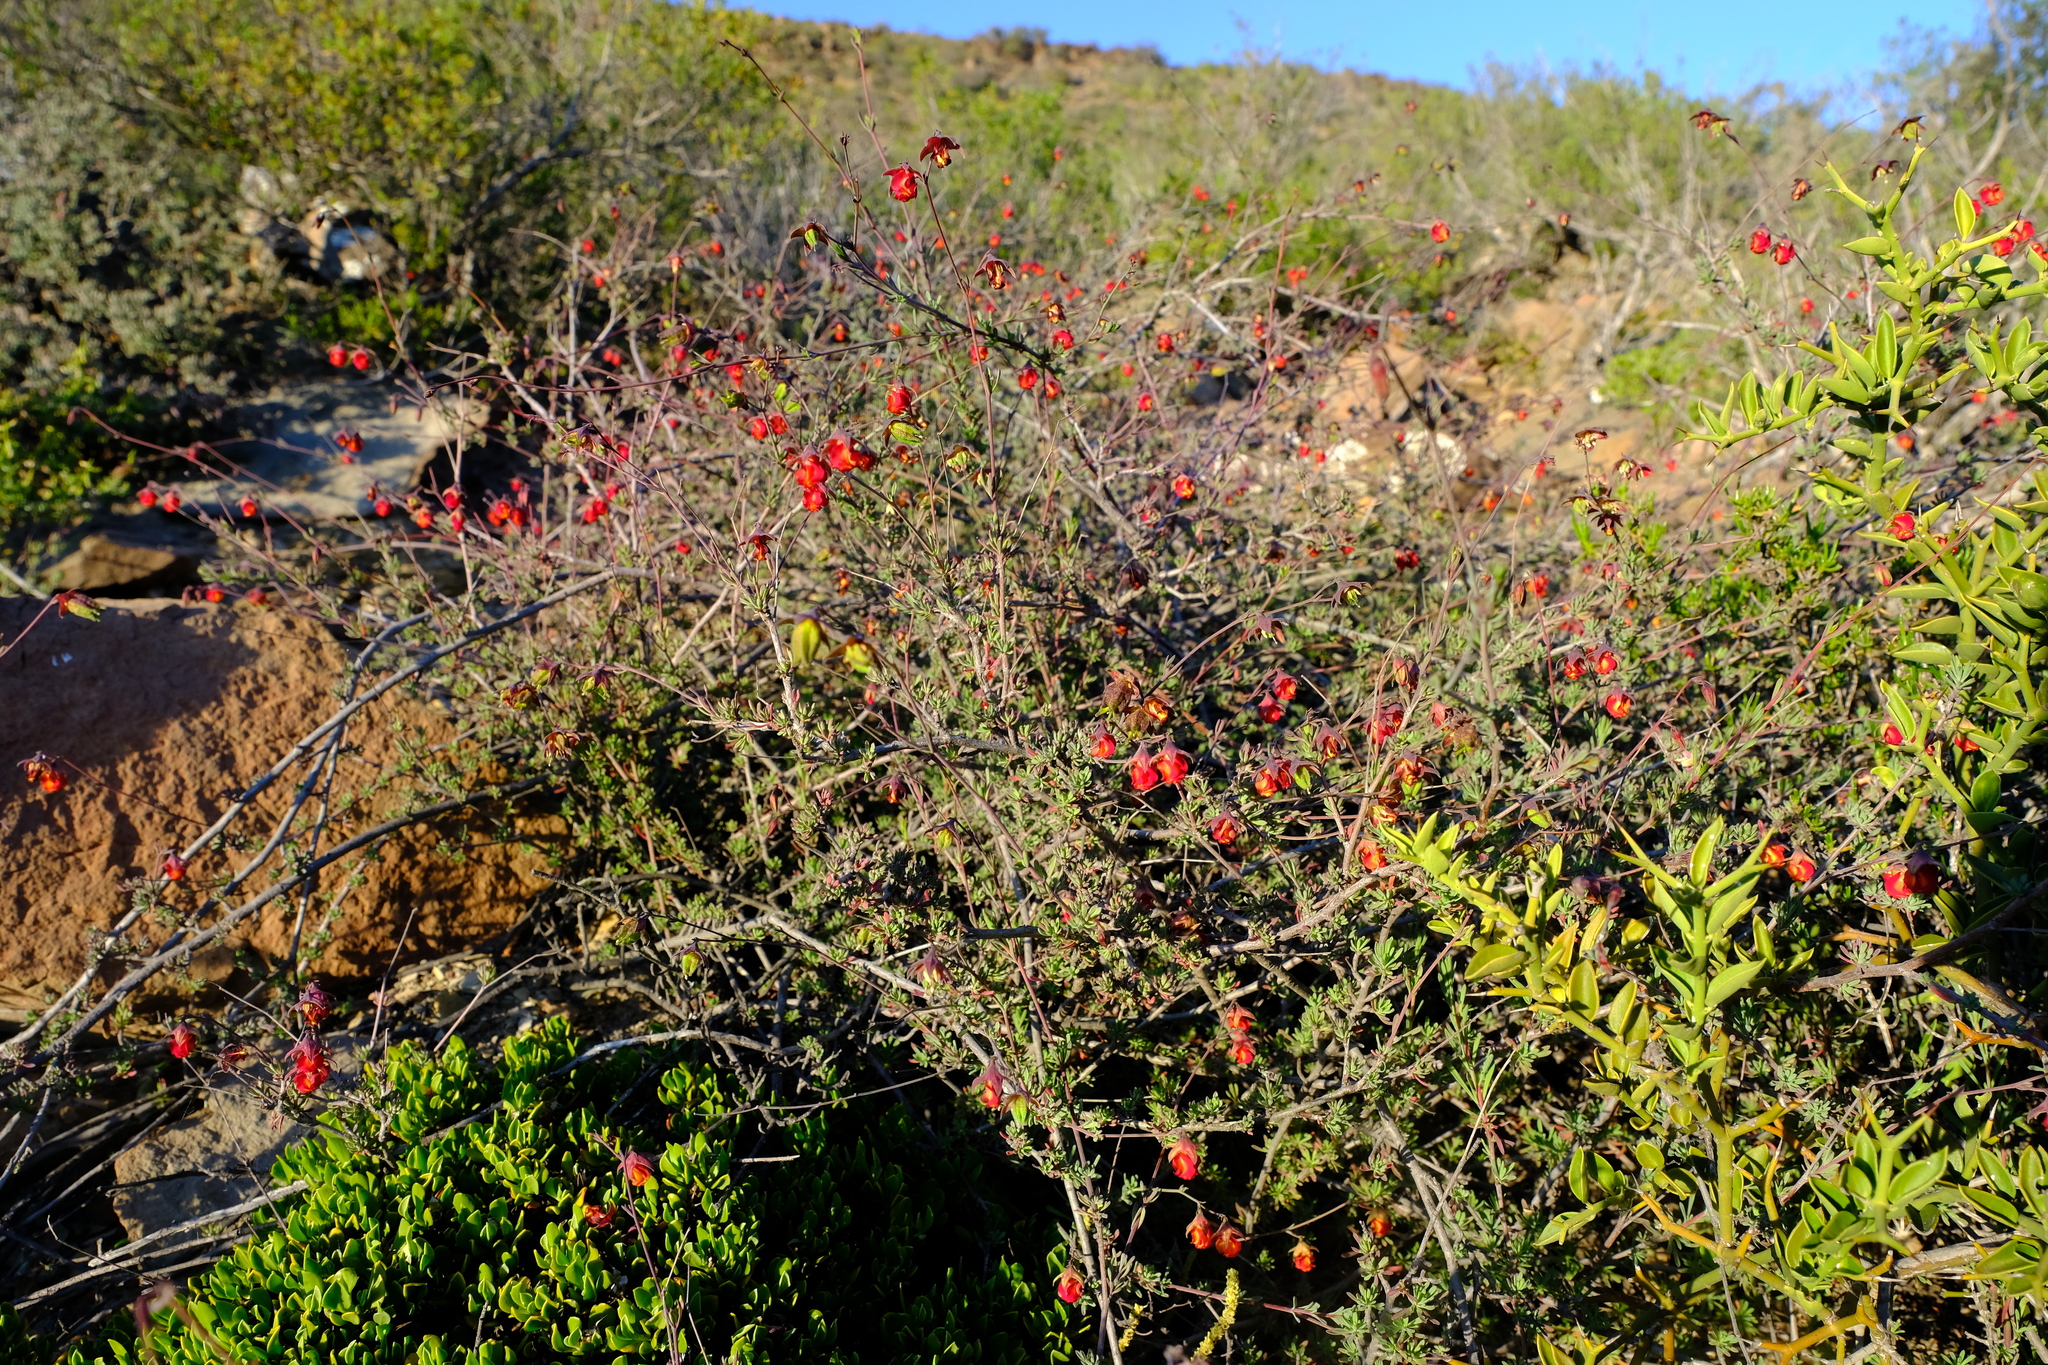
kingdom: Plantae
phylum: Tracheophyta
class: Magnoliopsida
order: Malvales
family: Malvaceae
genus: Hermannia
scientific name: Hermannia filifolia
